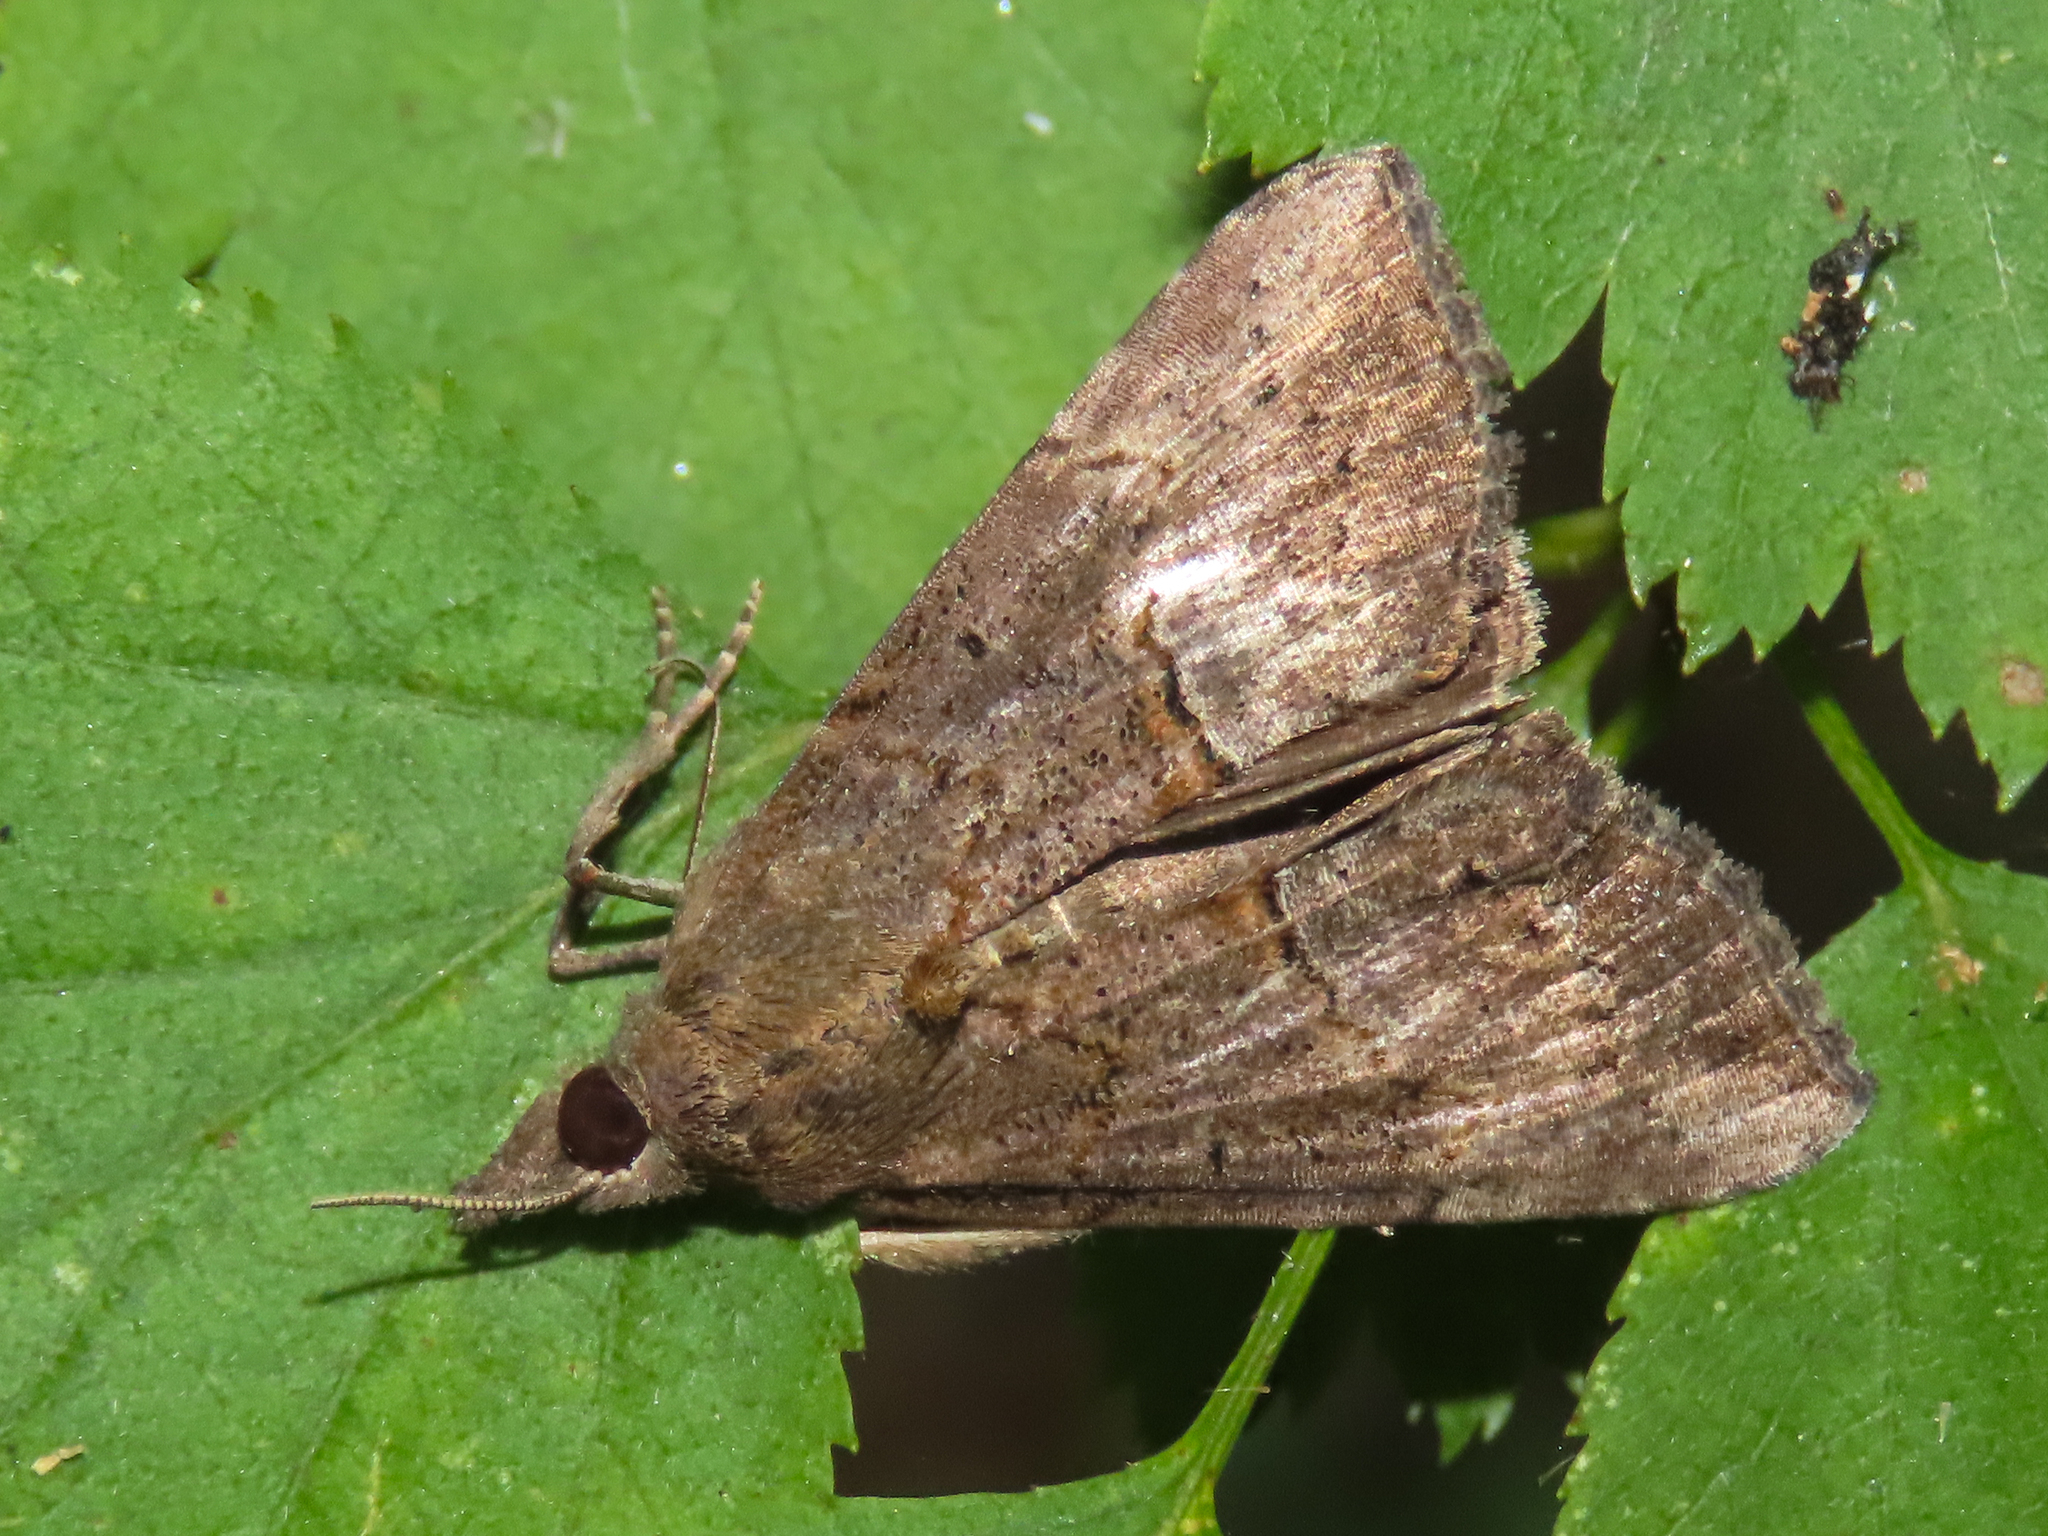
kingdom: Animalia
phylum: Arthropoda
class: Insecta
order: Lepidoptera
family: Erebidae
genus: Hypena
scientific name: Hypena scabra
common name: Green cloverworm
